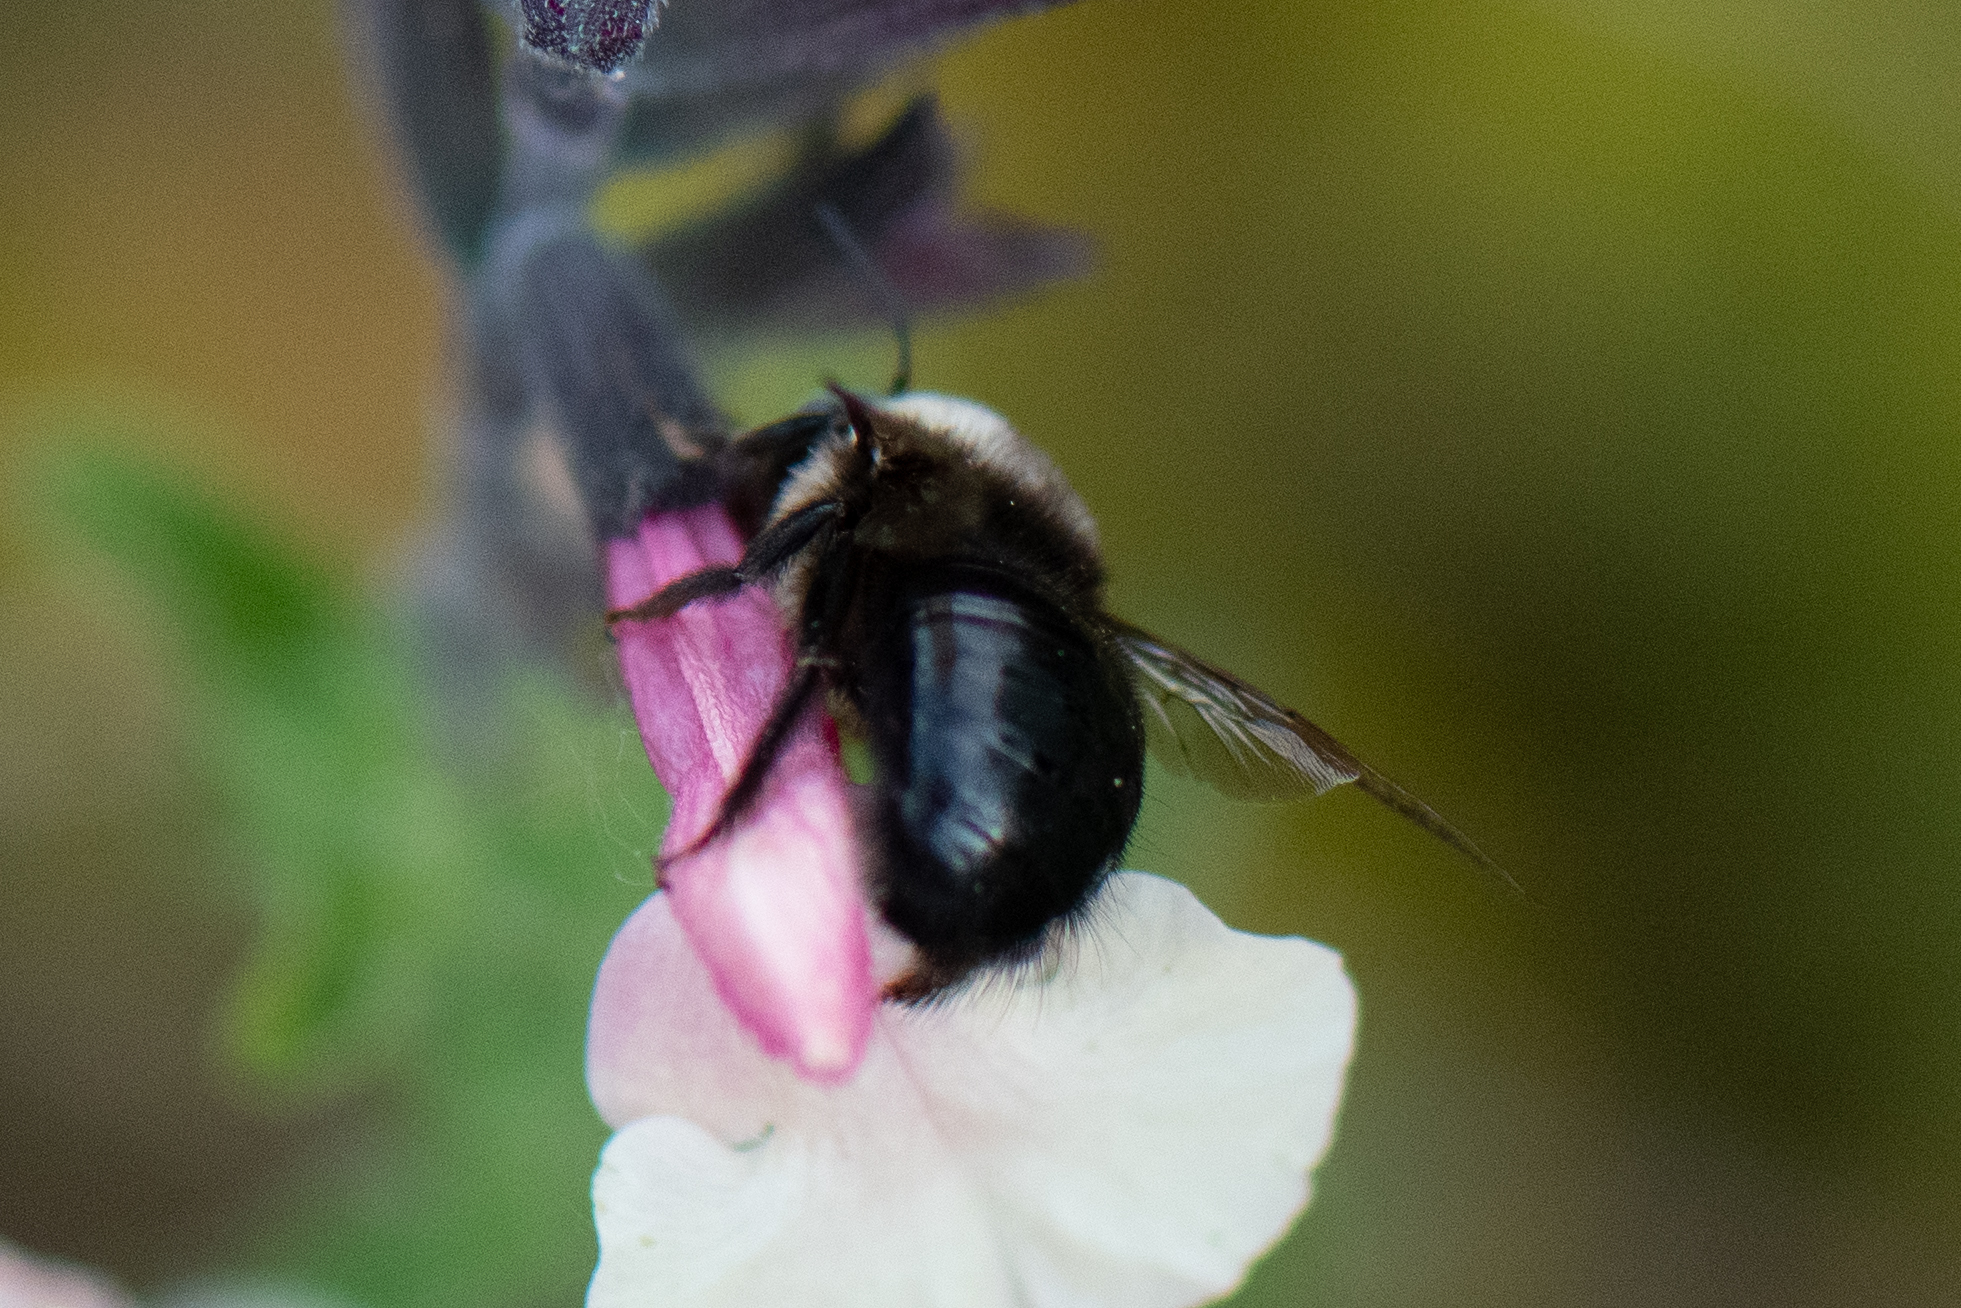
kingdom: Animalia
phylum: Arthropoda
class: Insecta
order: Hymenoptera
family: Apidae
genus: Xylocopa
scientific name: Xylocopa tabaniformis
